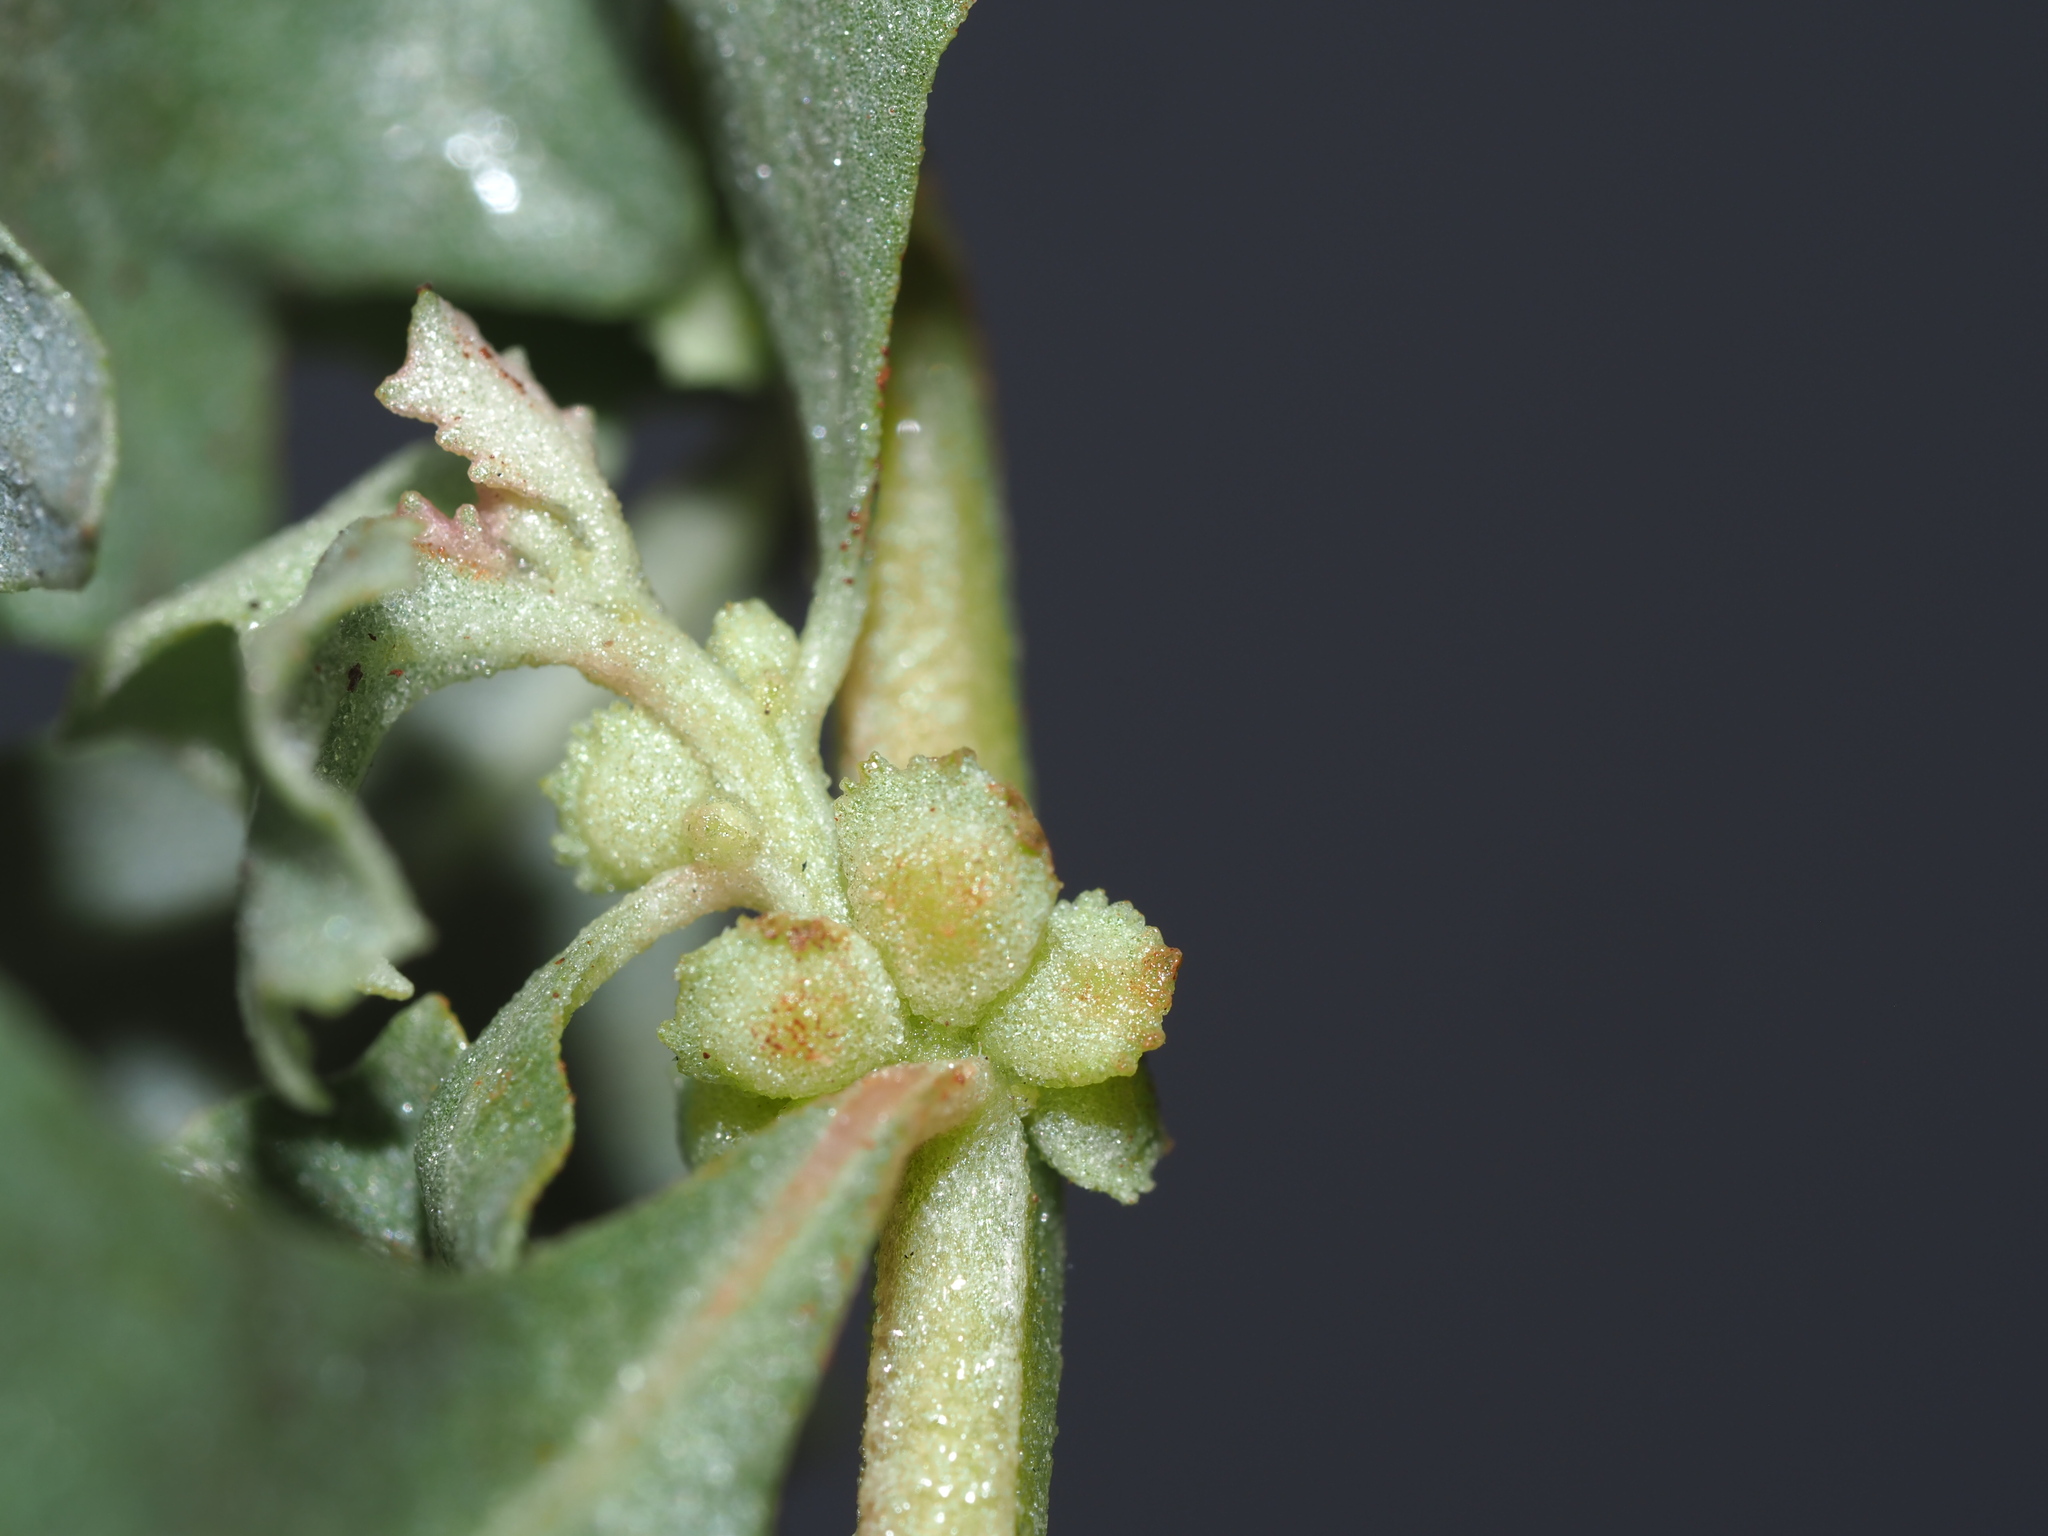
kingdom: Plantae
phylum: Tracheophyta
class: Magnoliopsida
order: Caryophyllales
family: Amaranthaceae
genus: Atriplex
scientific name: Atriplex muelleri
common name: Mueller's saltbush
